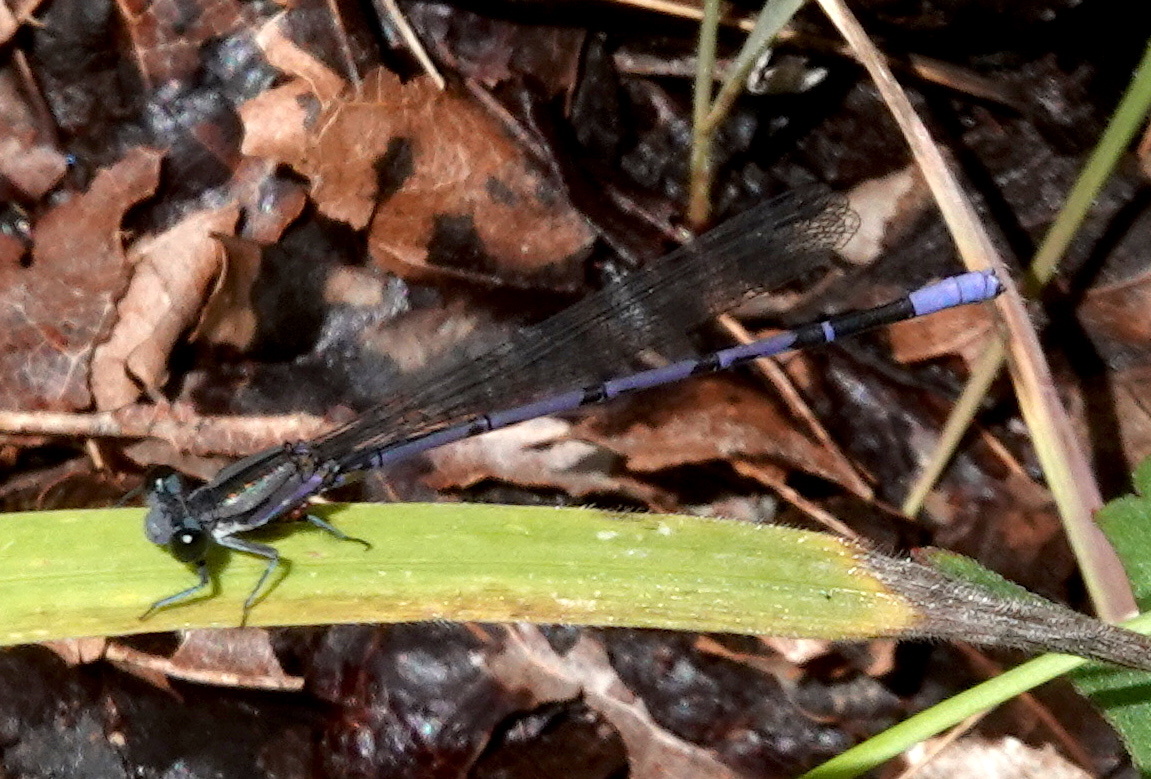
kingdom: Animalia
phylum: Arthropoda
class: Insecta
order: Odonata
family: Coenagrionidae
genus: Argia
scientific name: Argia funebris
